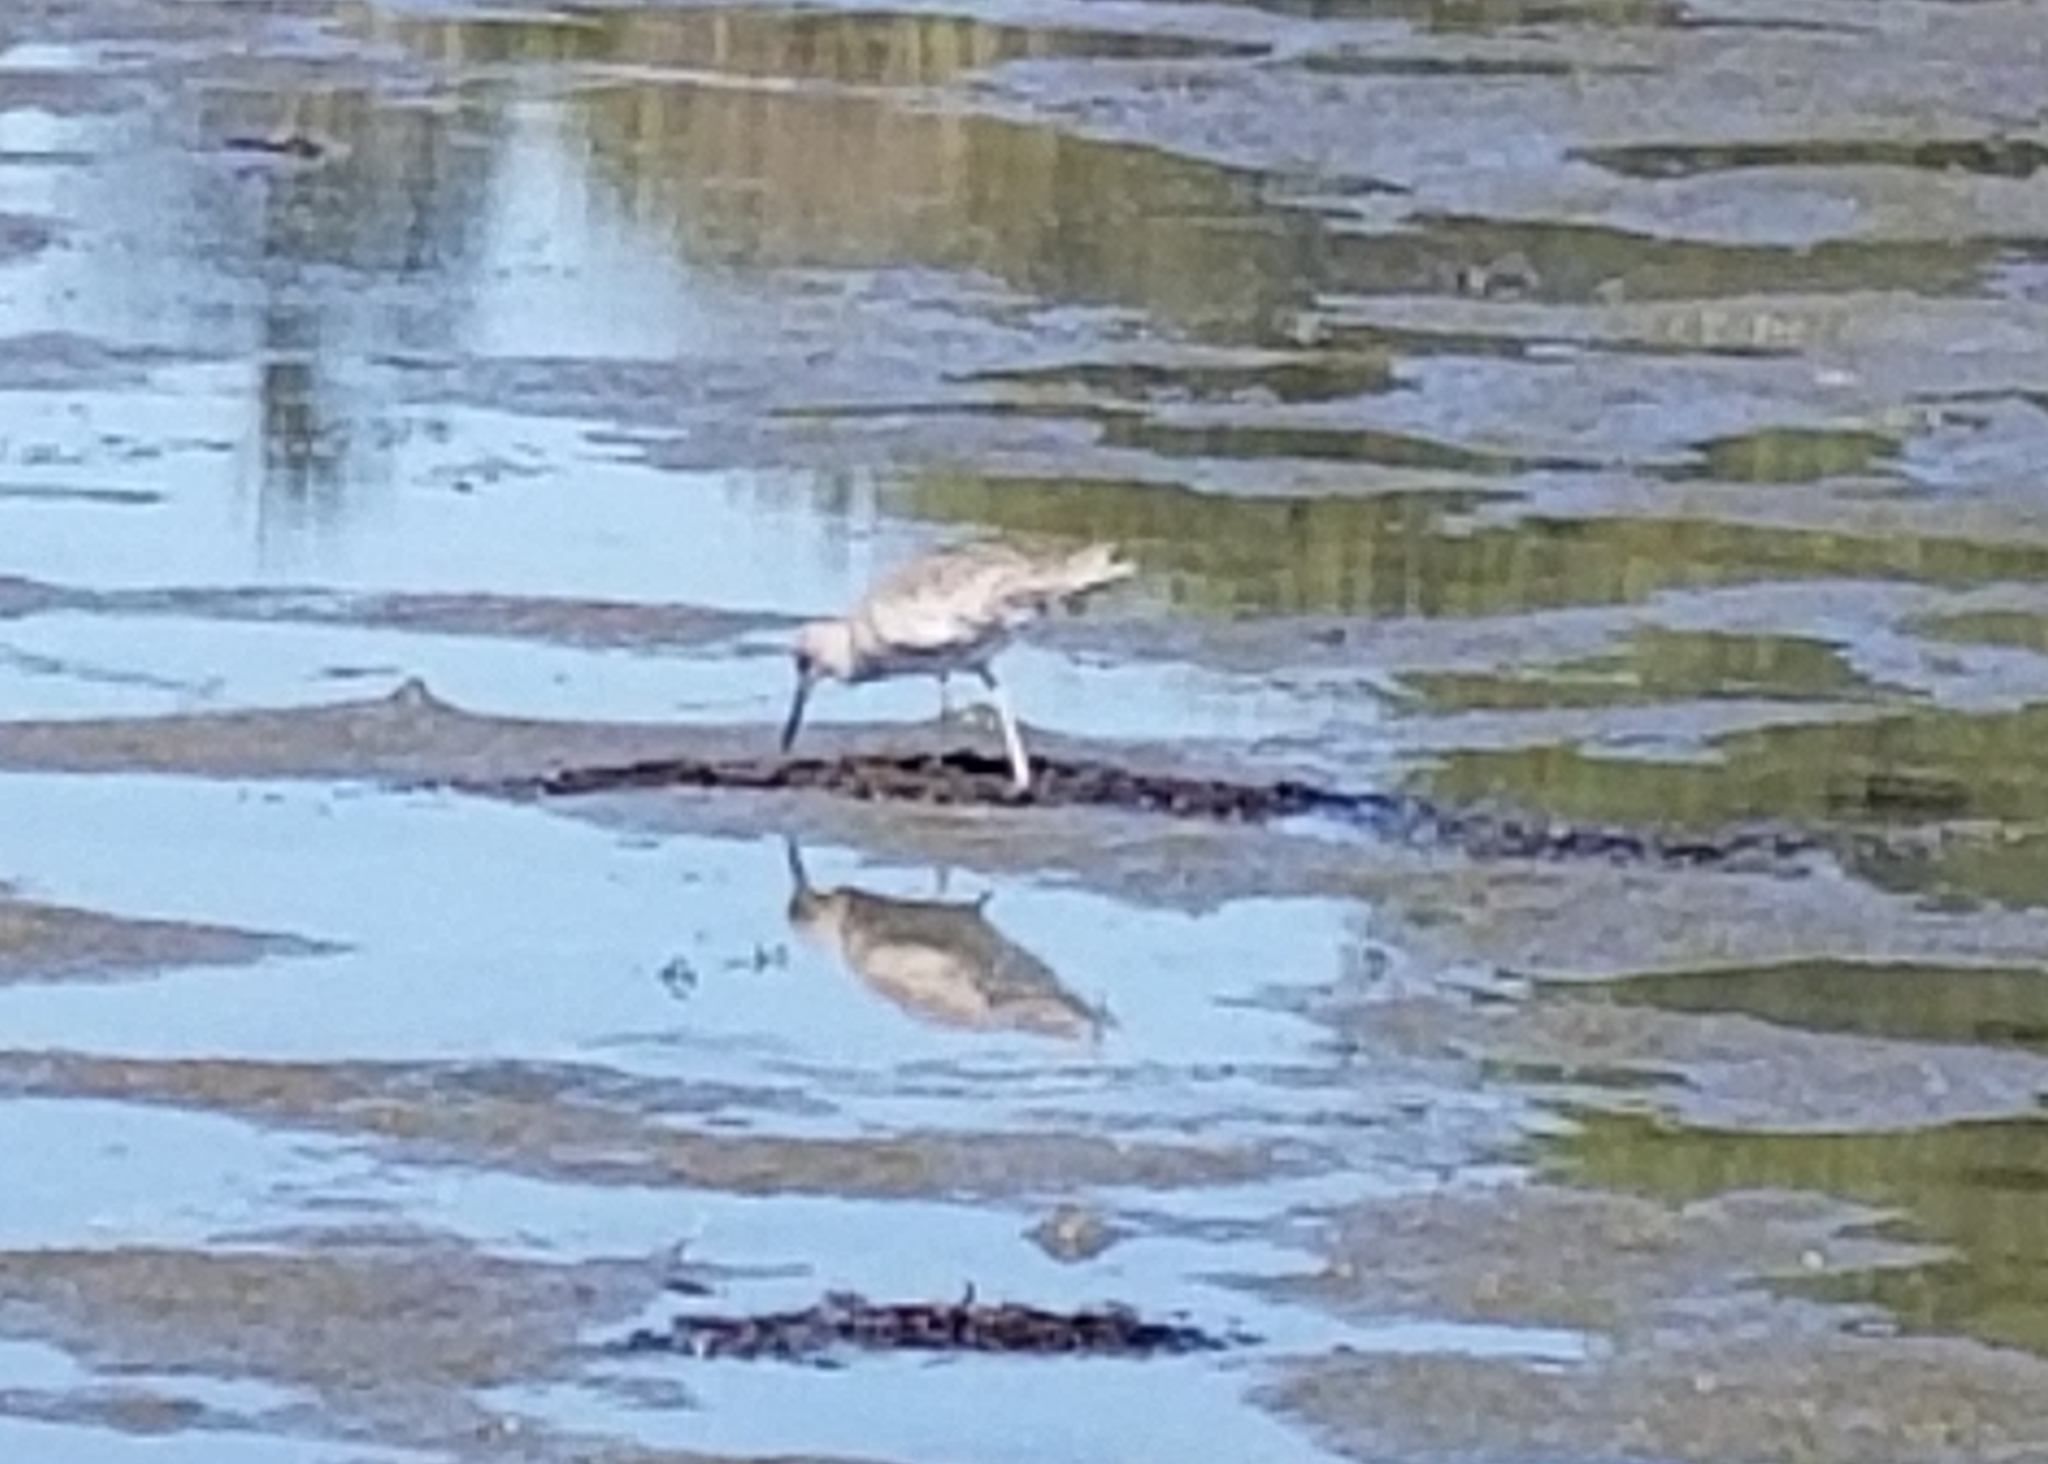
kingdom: Animalia
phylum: Chordata
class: Aves
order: Charadriiformes
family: Scolopacidae
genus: Tringa
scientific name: Tringa semipalmata
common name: Willet
